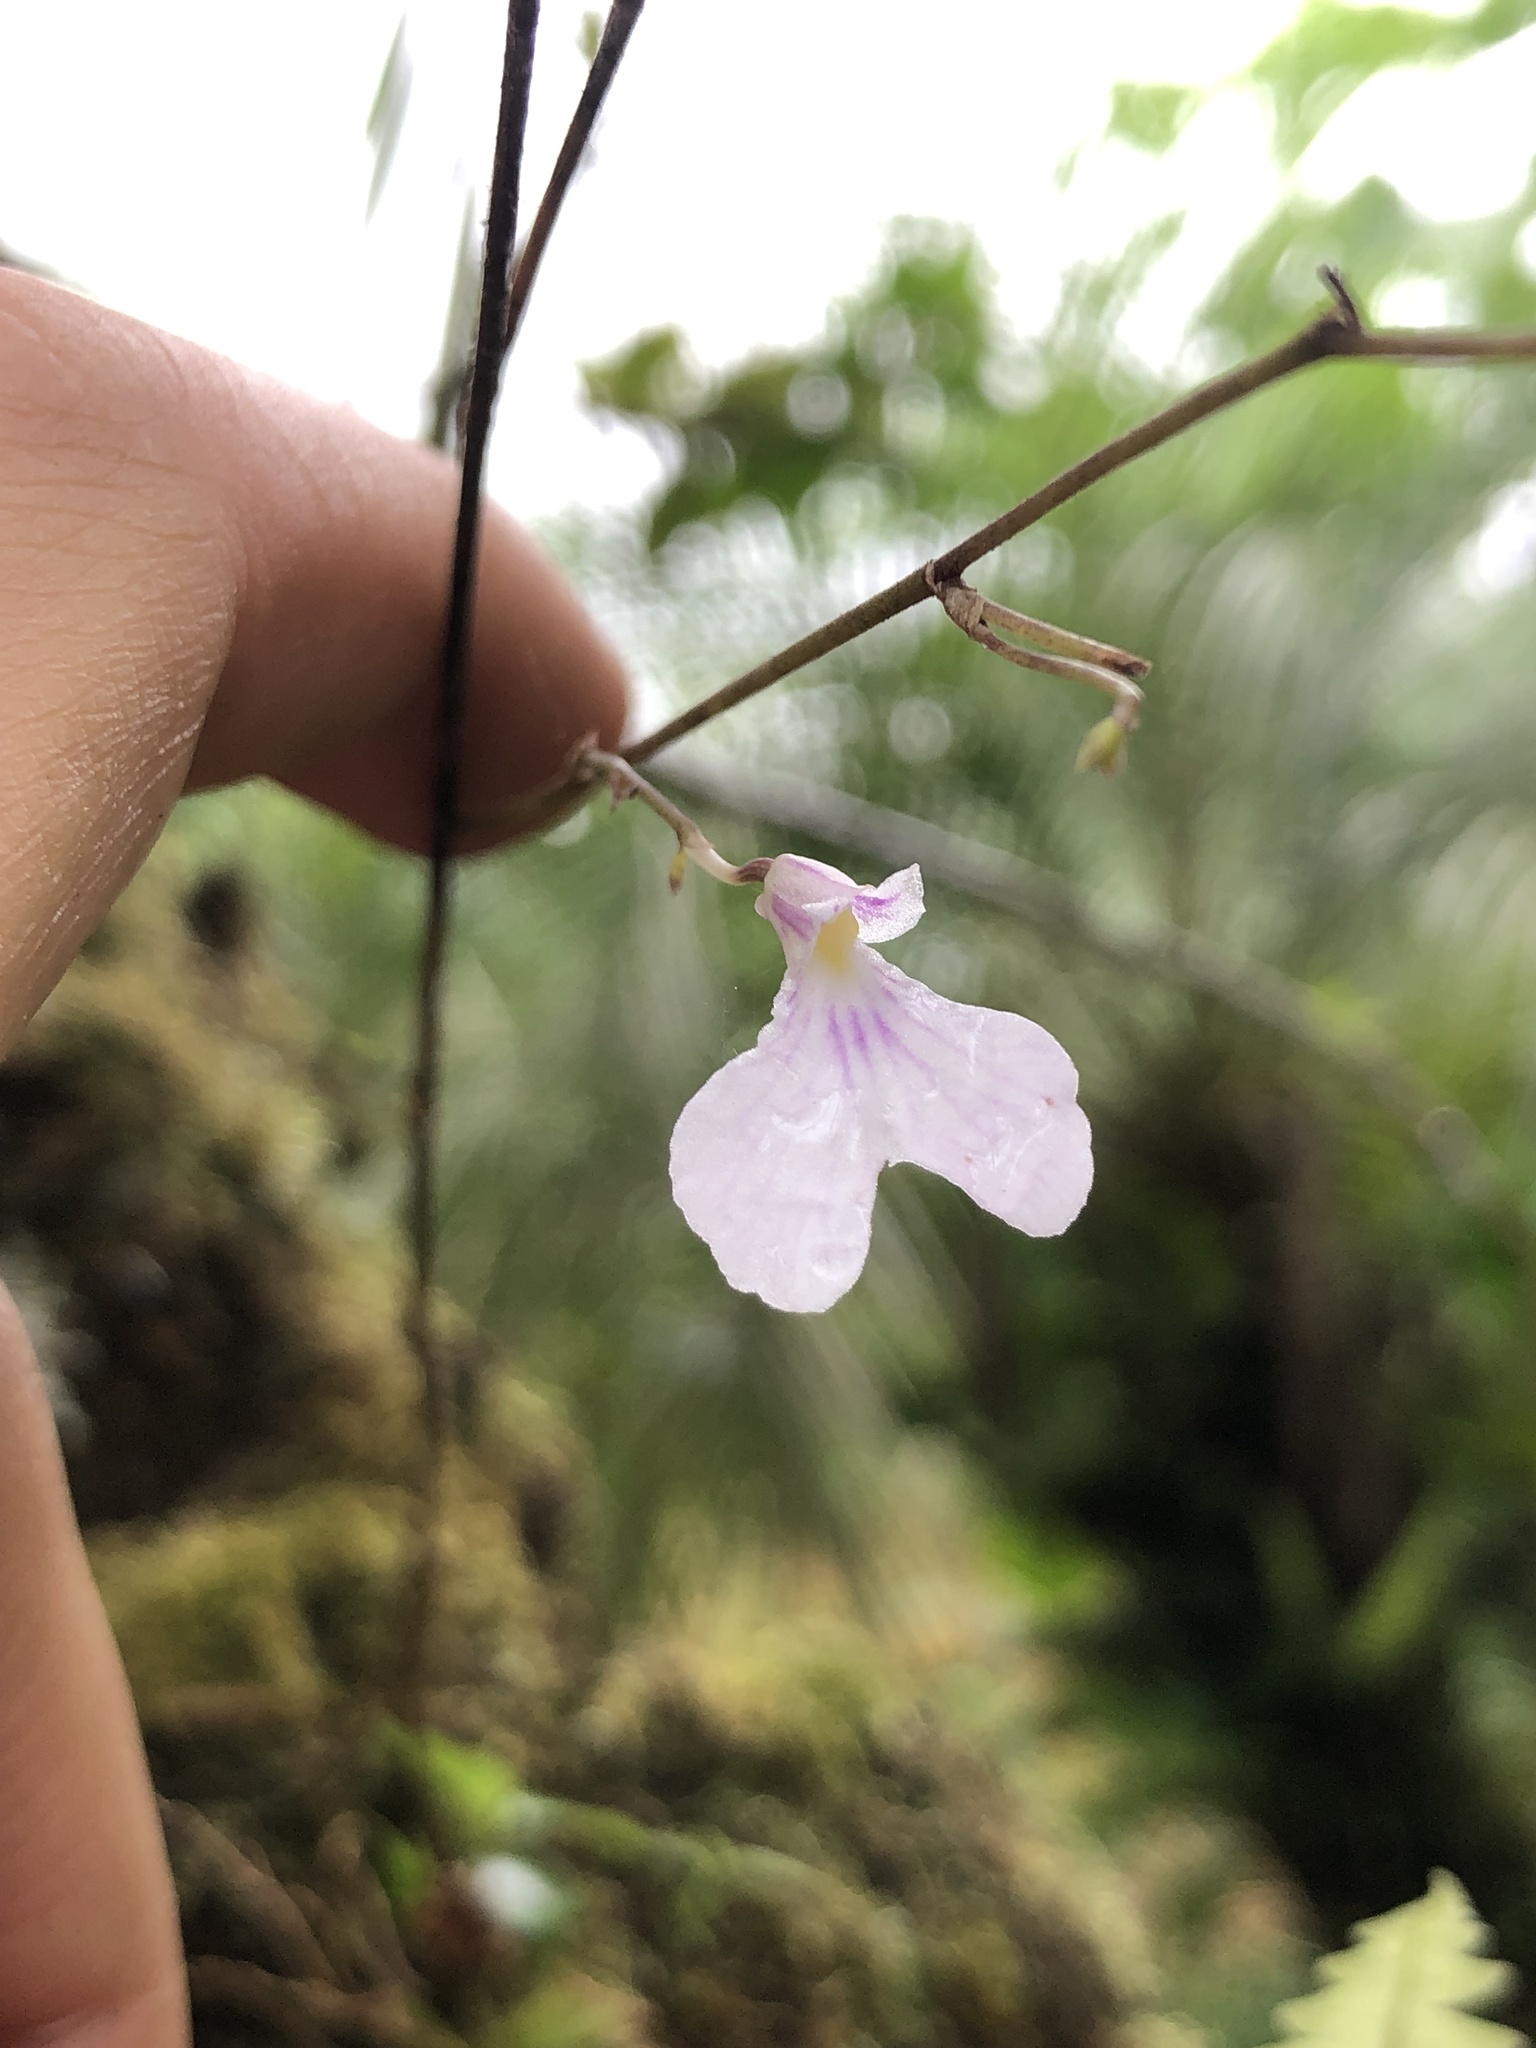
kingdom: Plantae
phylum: Tracheophyta
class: Liliopsida
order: Asparagales
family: Orchidaceae
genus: Ionopsis
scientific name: Ionopsis utricularioides
